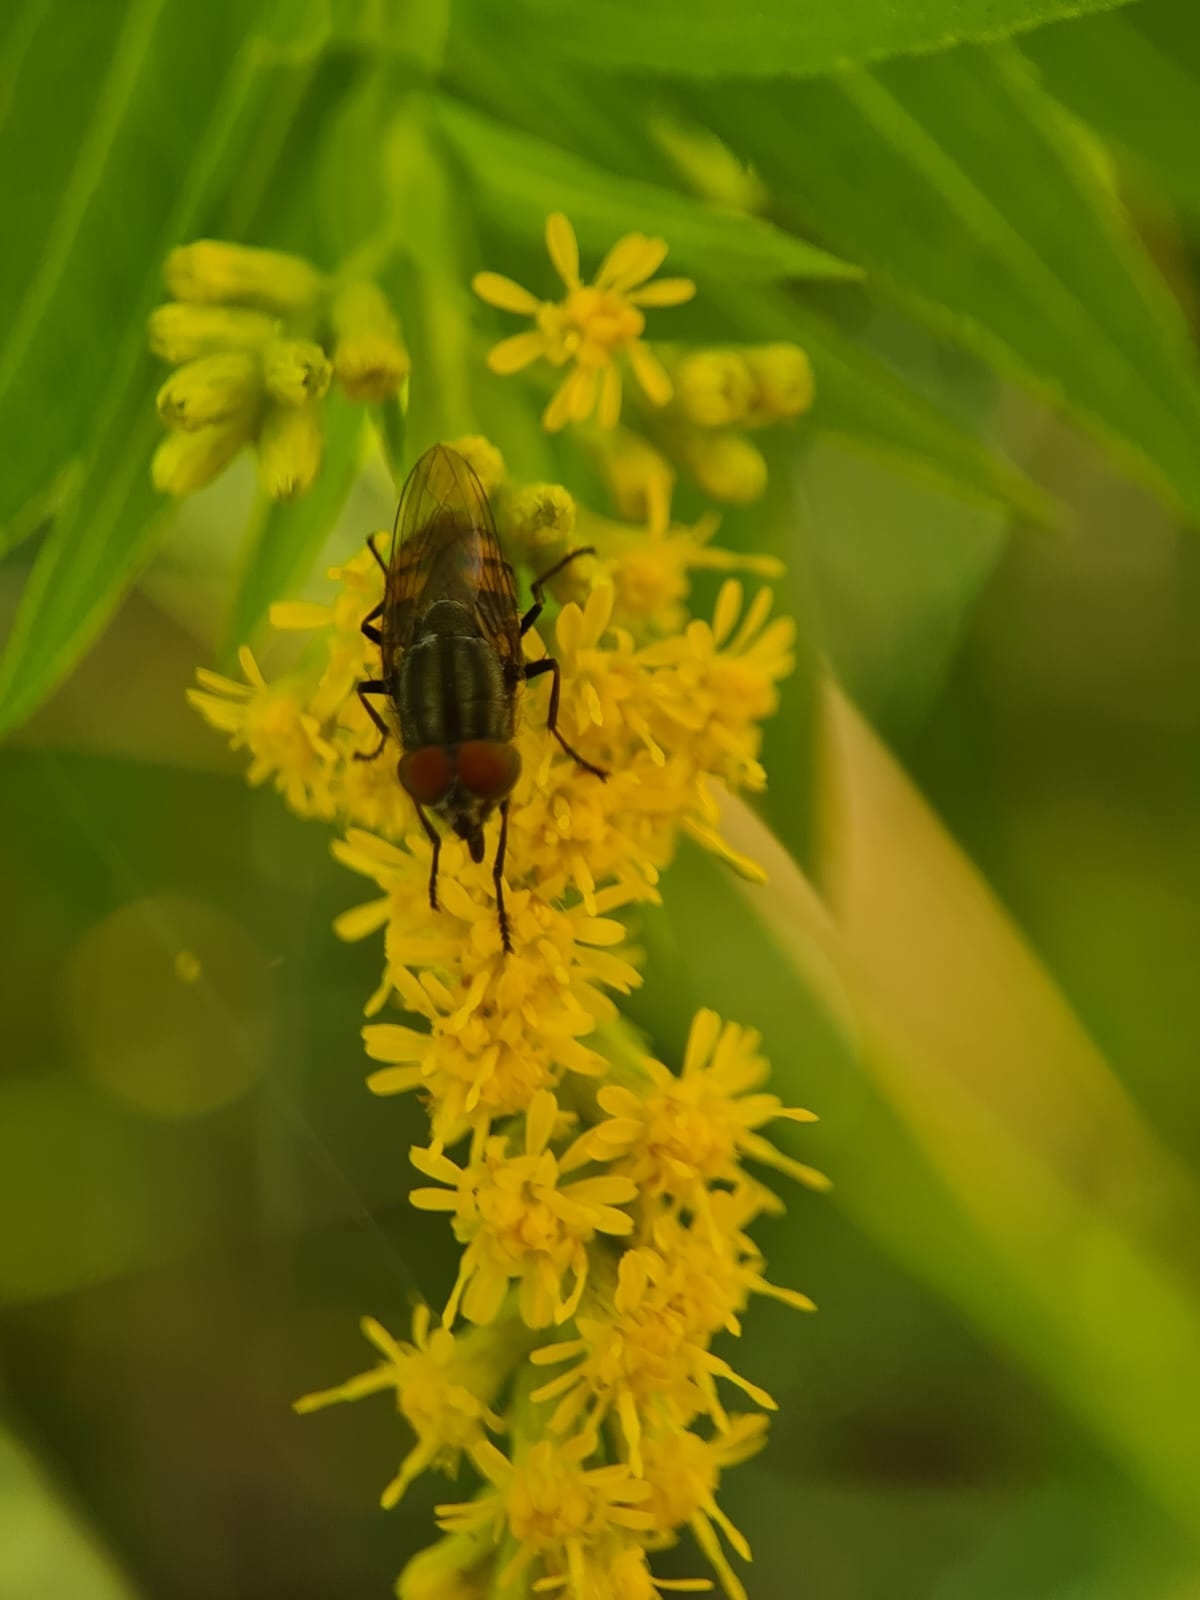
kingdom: Animalia
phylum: Arthropoda
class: Insecta
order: Diptera
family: Calliphoridae
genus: Stomorhina
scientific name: Stomorhina lunata
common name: Locust blowfly
